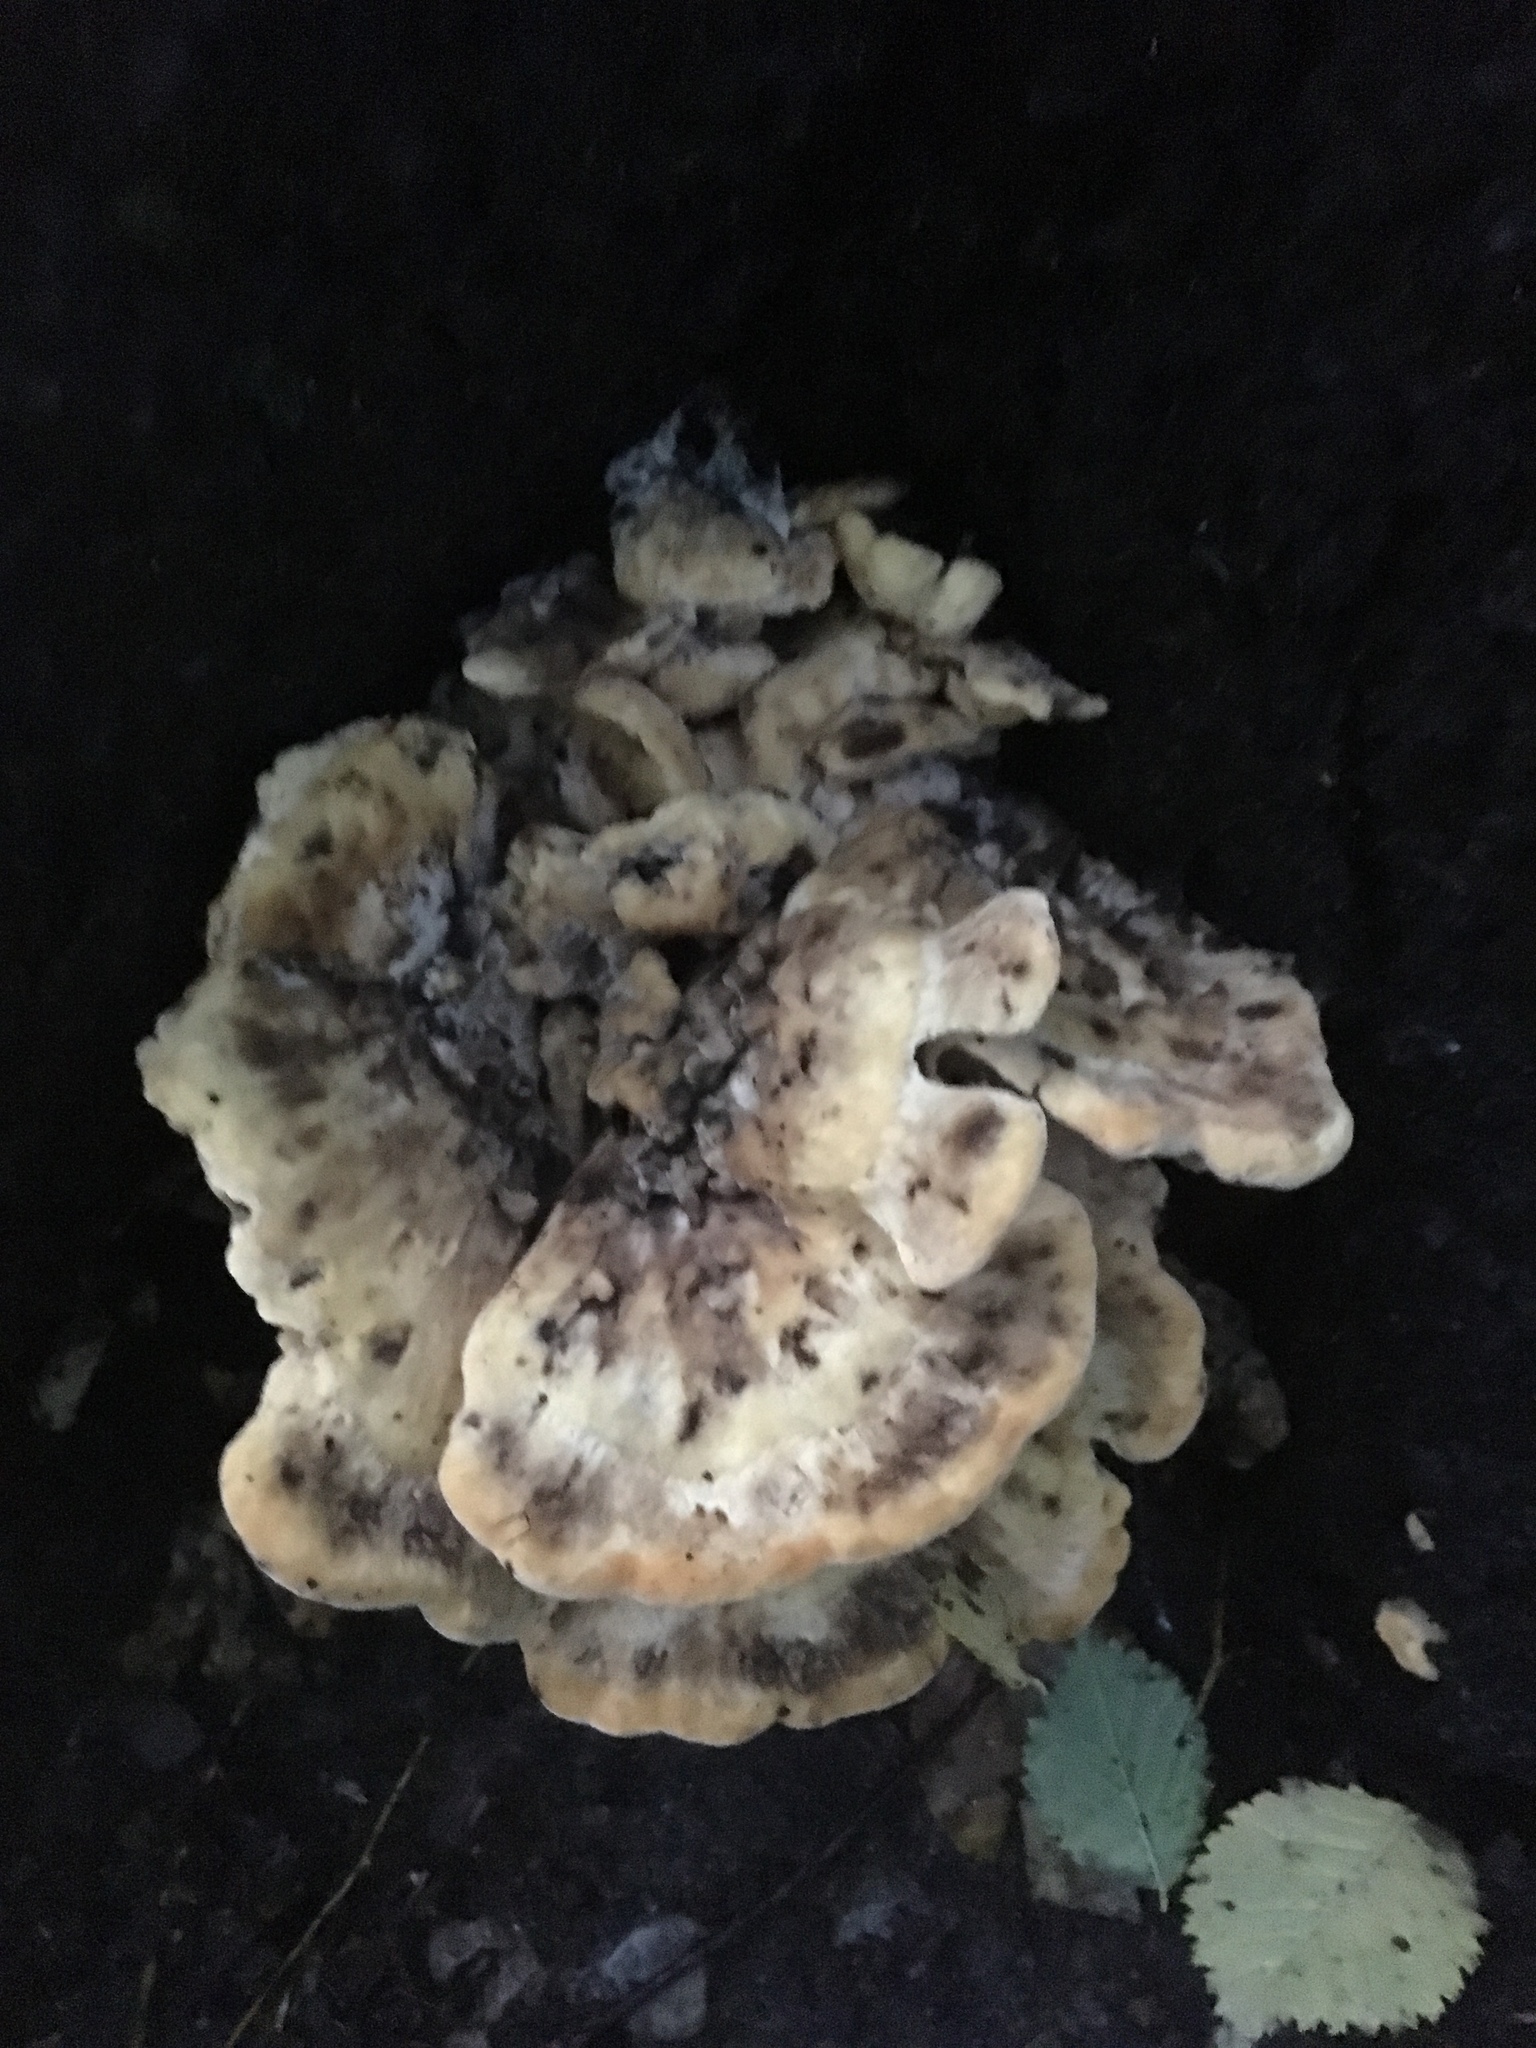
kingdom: Fungi
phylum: Basidiomycota
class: Agaricomycetes
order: Polyporales
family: Meripilaceae
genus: Meripilus
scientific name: Meripilus giganteus
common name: Giant polypore
